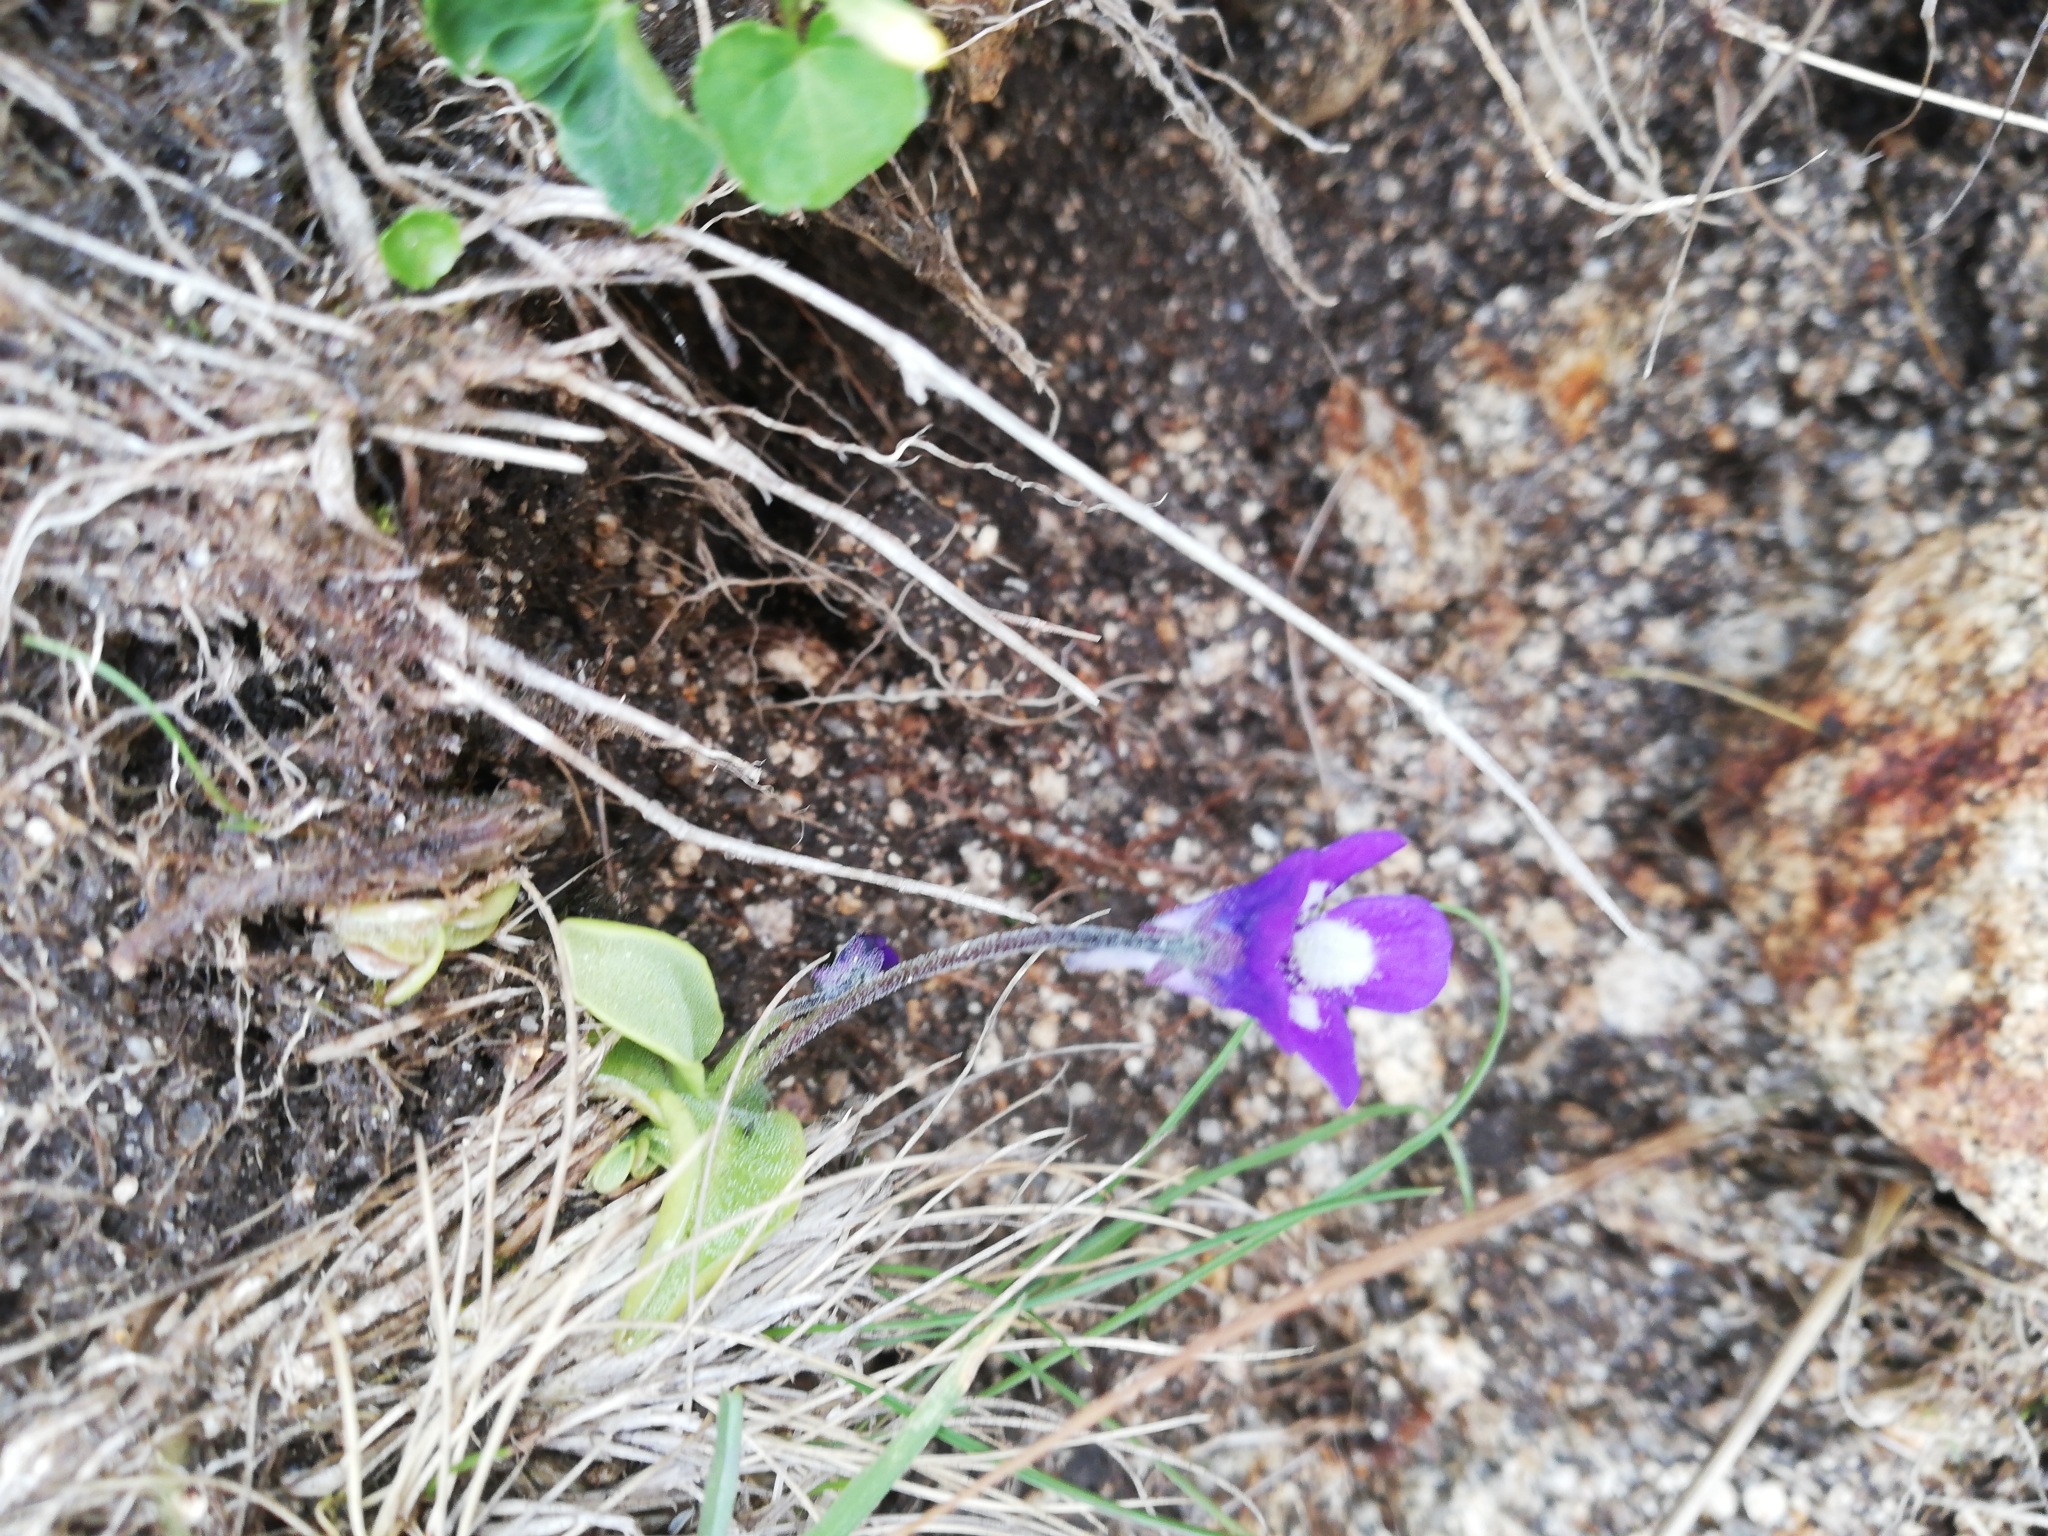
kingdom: Plantae
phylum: Tracheophyta
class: Magnoliopsida
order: Lamiales
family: Lentibulariaceae
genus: Pinguicula
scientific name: Pinguicula leptoceras
